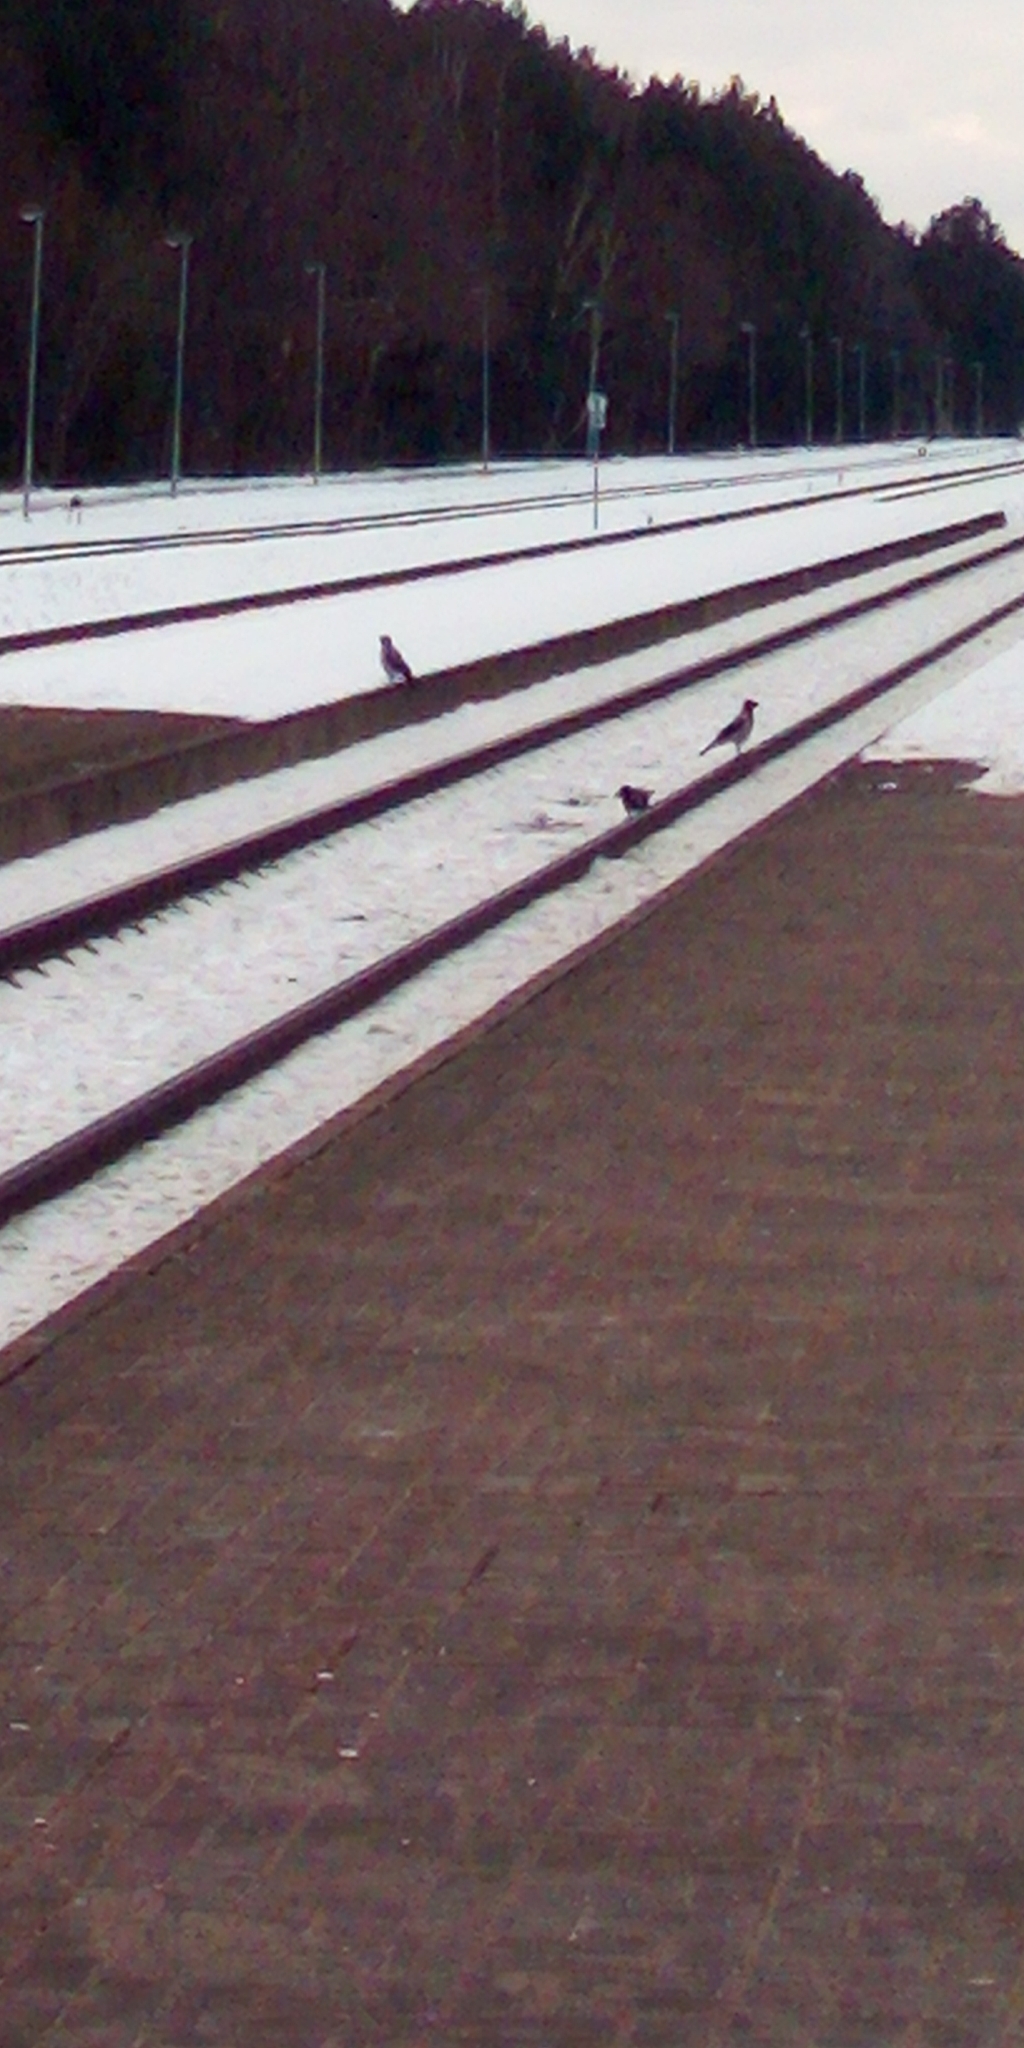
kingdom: Animalia
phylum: Chordata
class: Aves
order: Passeriformes
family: Corvidae
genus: Corvus
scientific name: Corvus cornix
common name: Hooded crow
